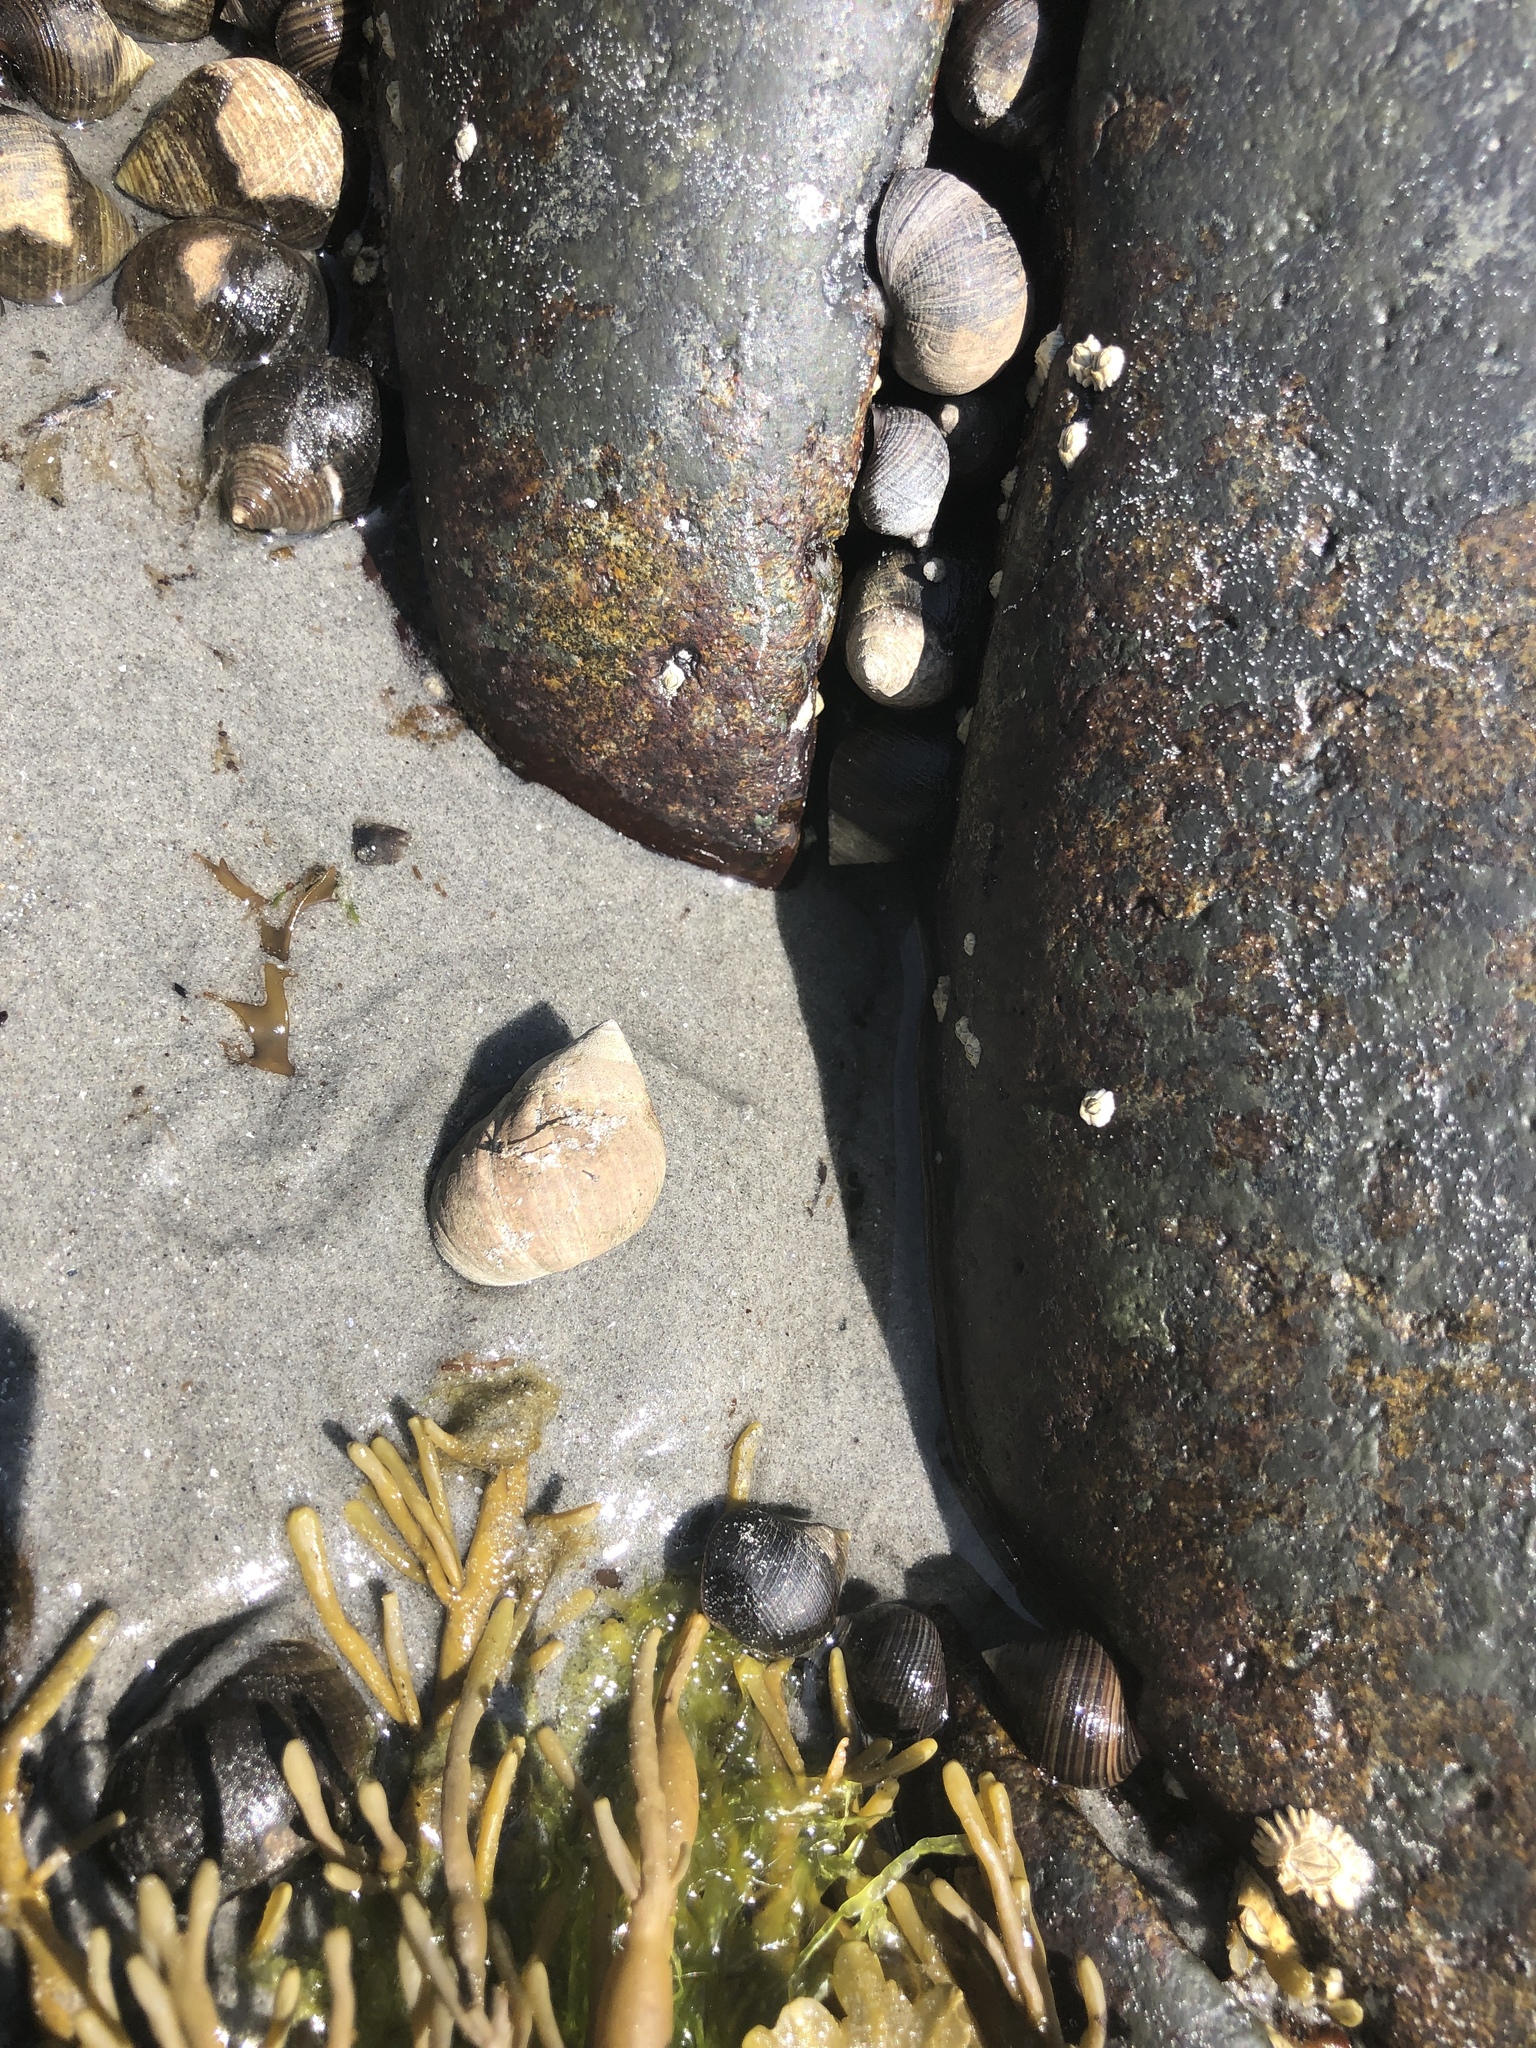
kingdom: Animalia
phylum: Mollusca
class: Gastropoda
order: Littorinimorpha
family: Littorinidae
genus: Littorina
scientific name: Littorina littorea
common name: Common periwinkle
